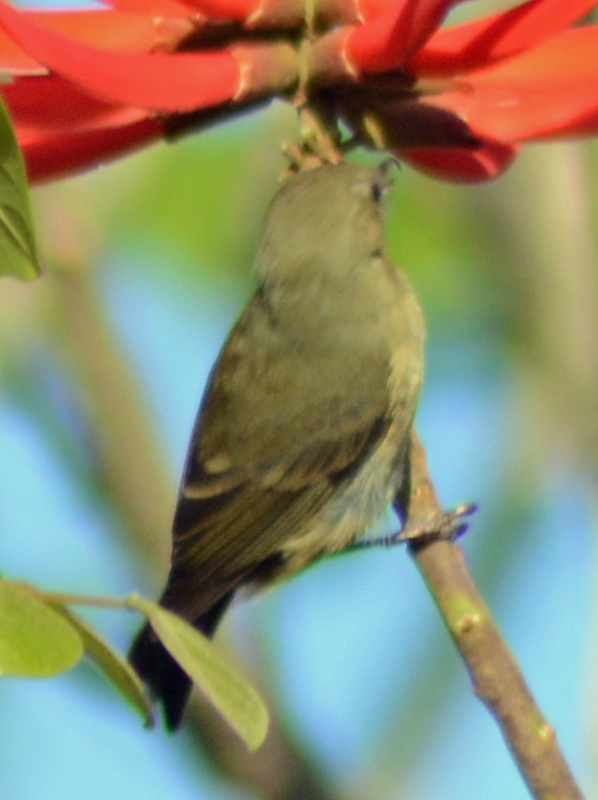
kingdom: Animalia
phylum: Chordata
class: Aves
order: Passeriformes
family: Thraupidae
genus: Diglossa
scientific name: Diglossa baritula
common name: Cinnamon-bellied flowerpiercer
